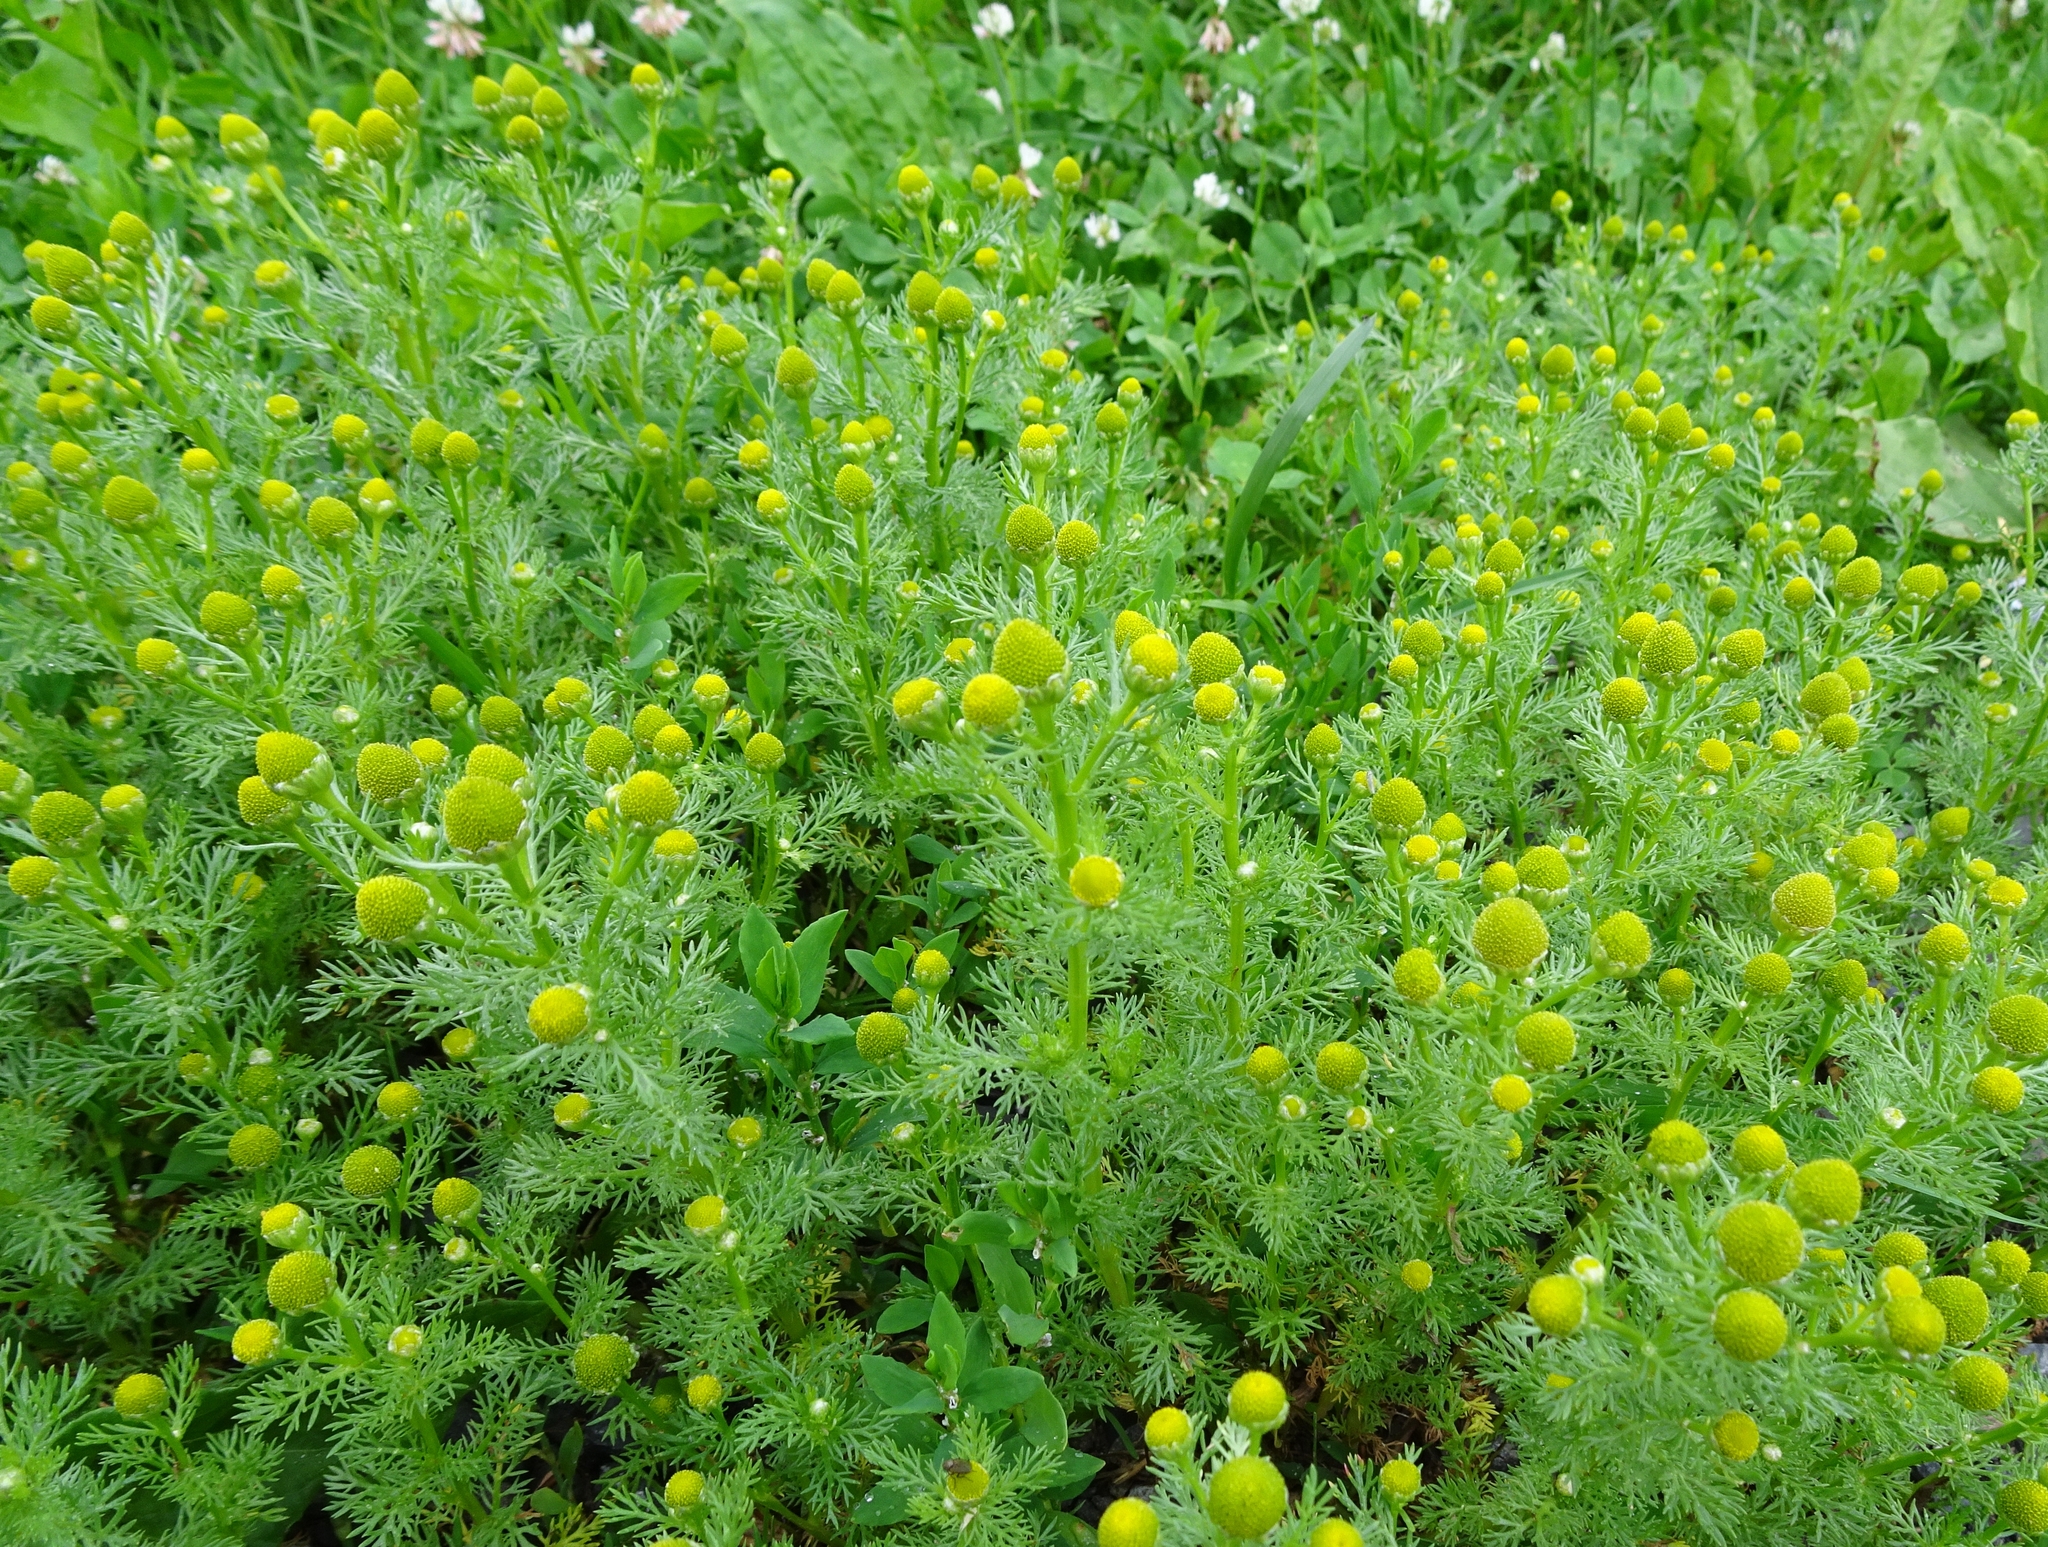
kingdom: Plantae
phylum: Tracheophyta
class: Magnoliopsida
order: Asterales
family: Asteraceae
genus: Matricaria
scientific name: Matricaria discoidea
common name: Disc mayweed
